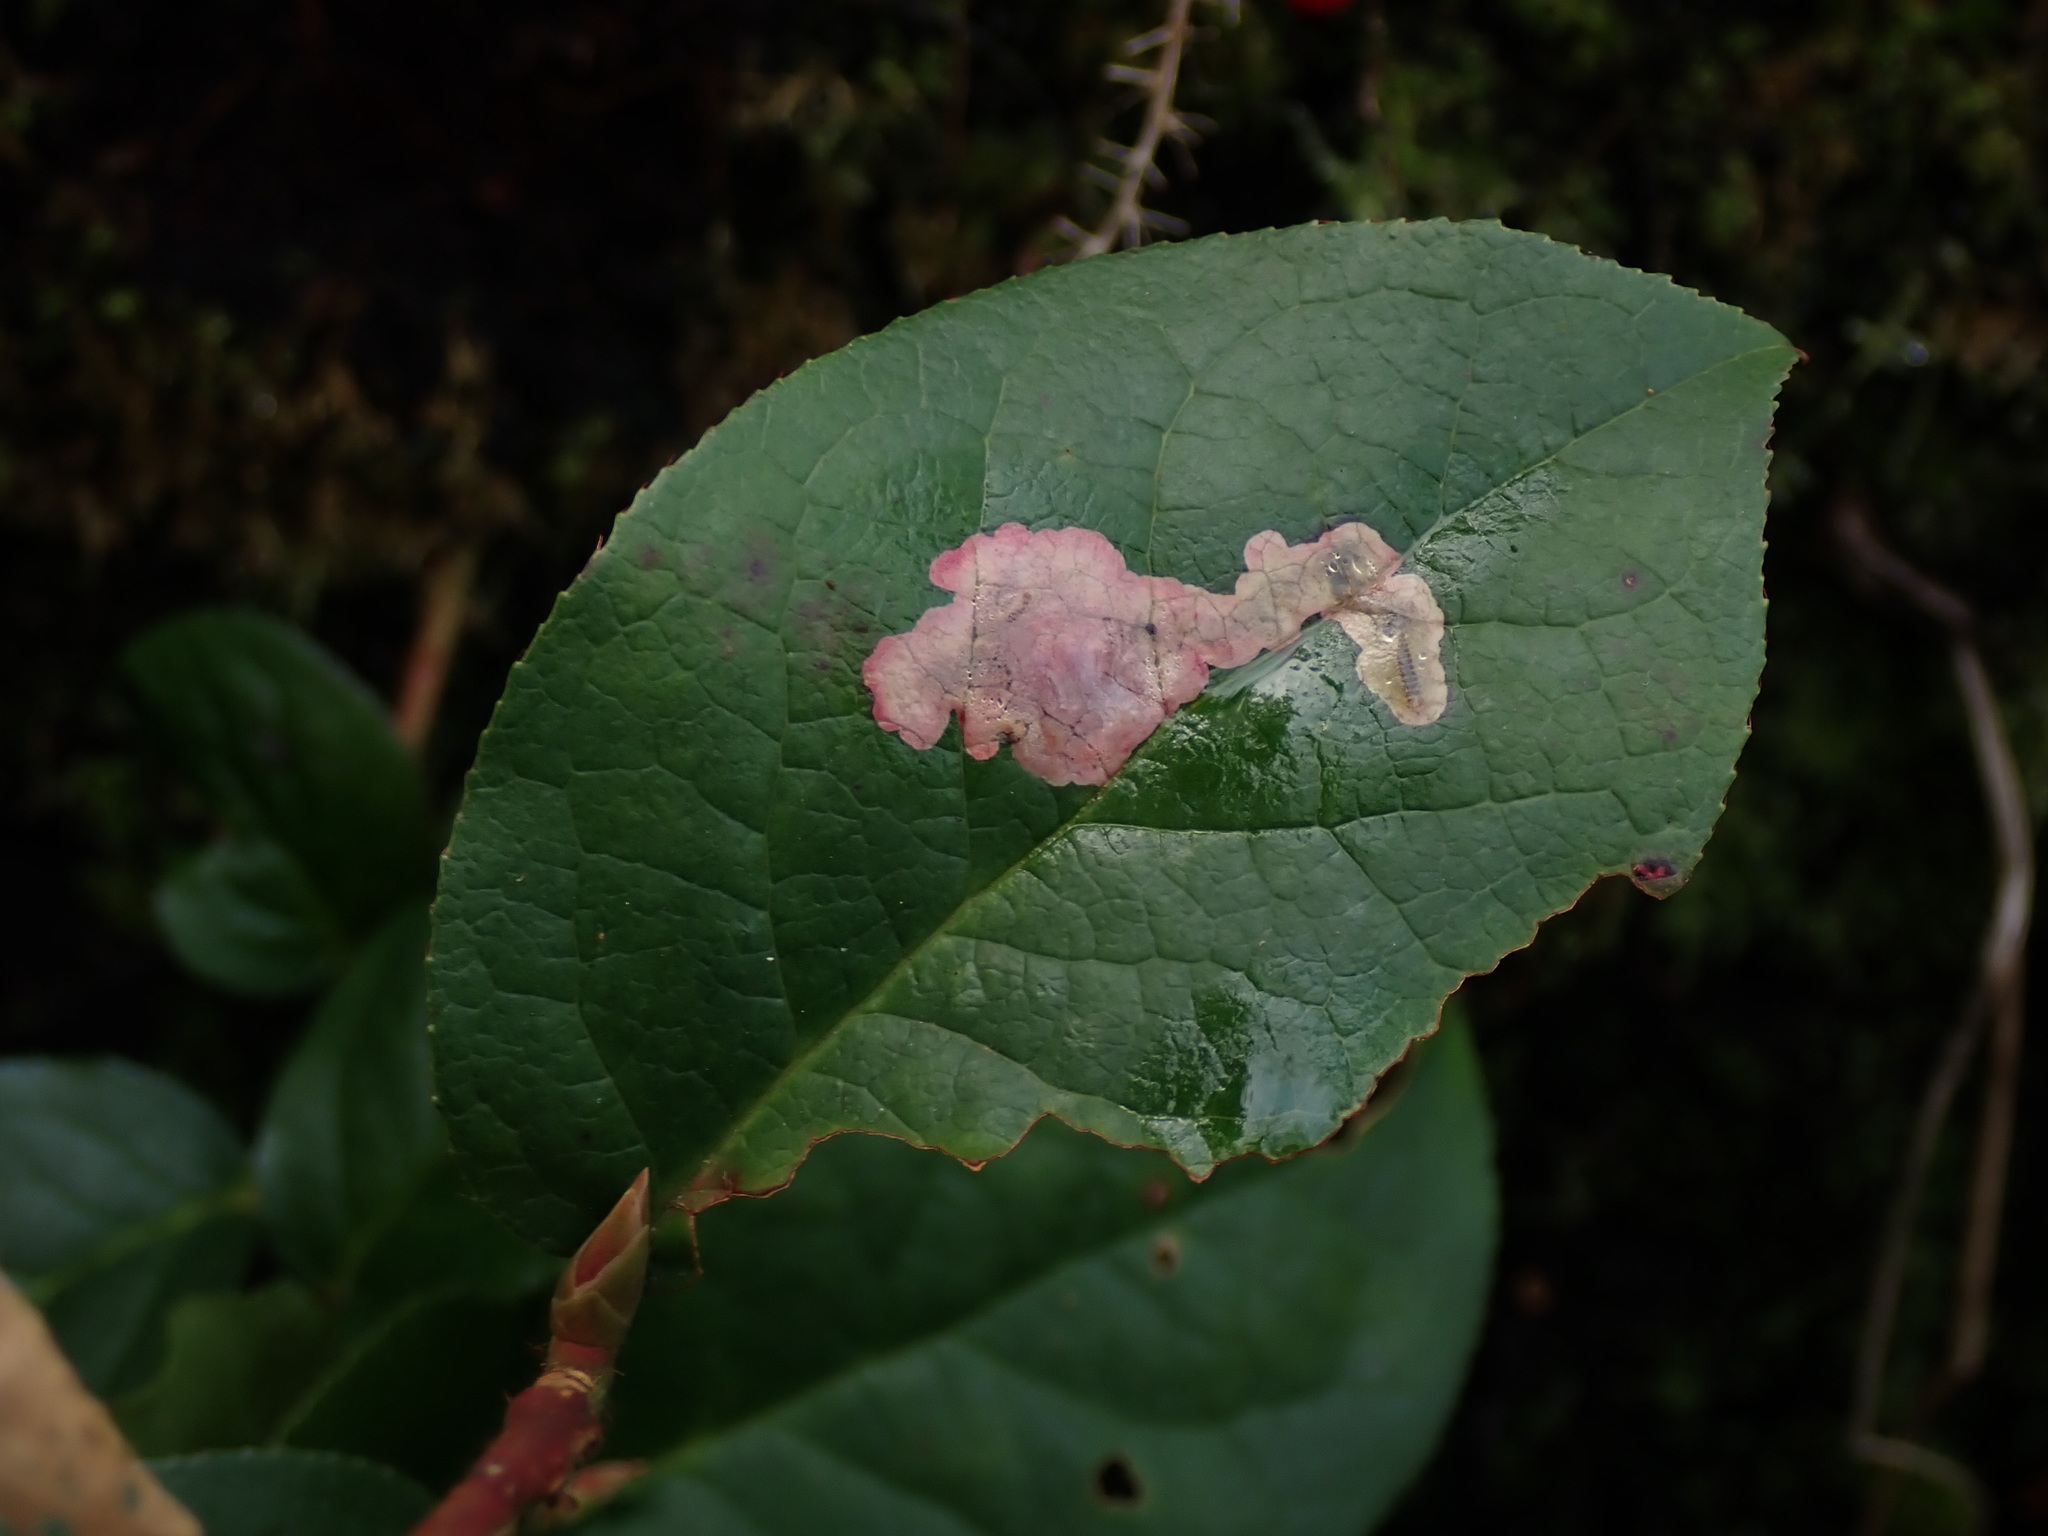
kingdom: Animalia
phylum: Arthropoda
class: Insecta
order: Lepidoptera
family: Gracillariidae
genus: Cameraria
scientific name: Cameraria gaultheriella
